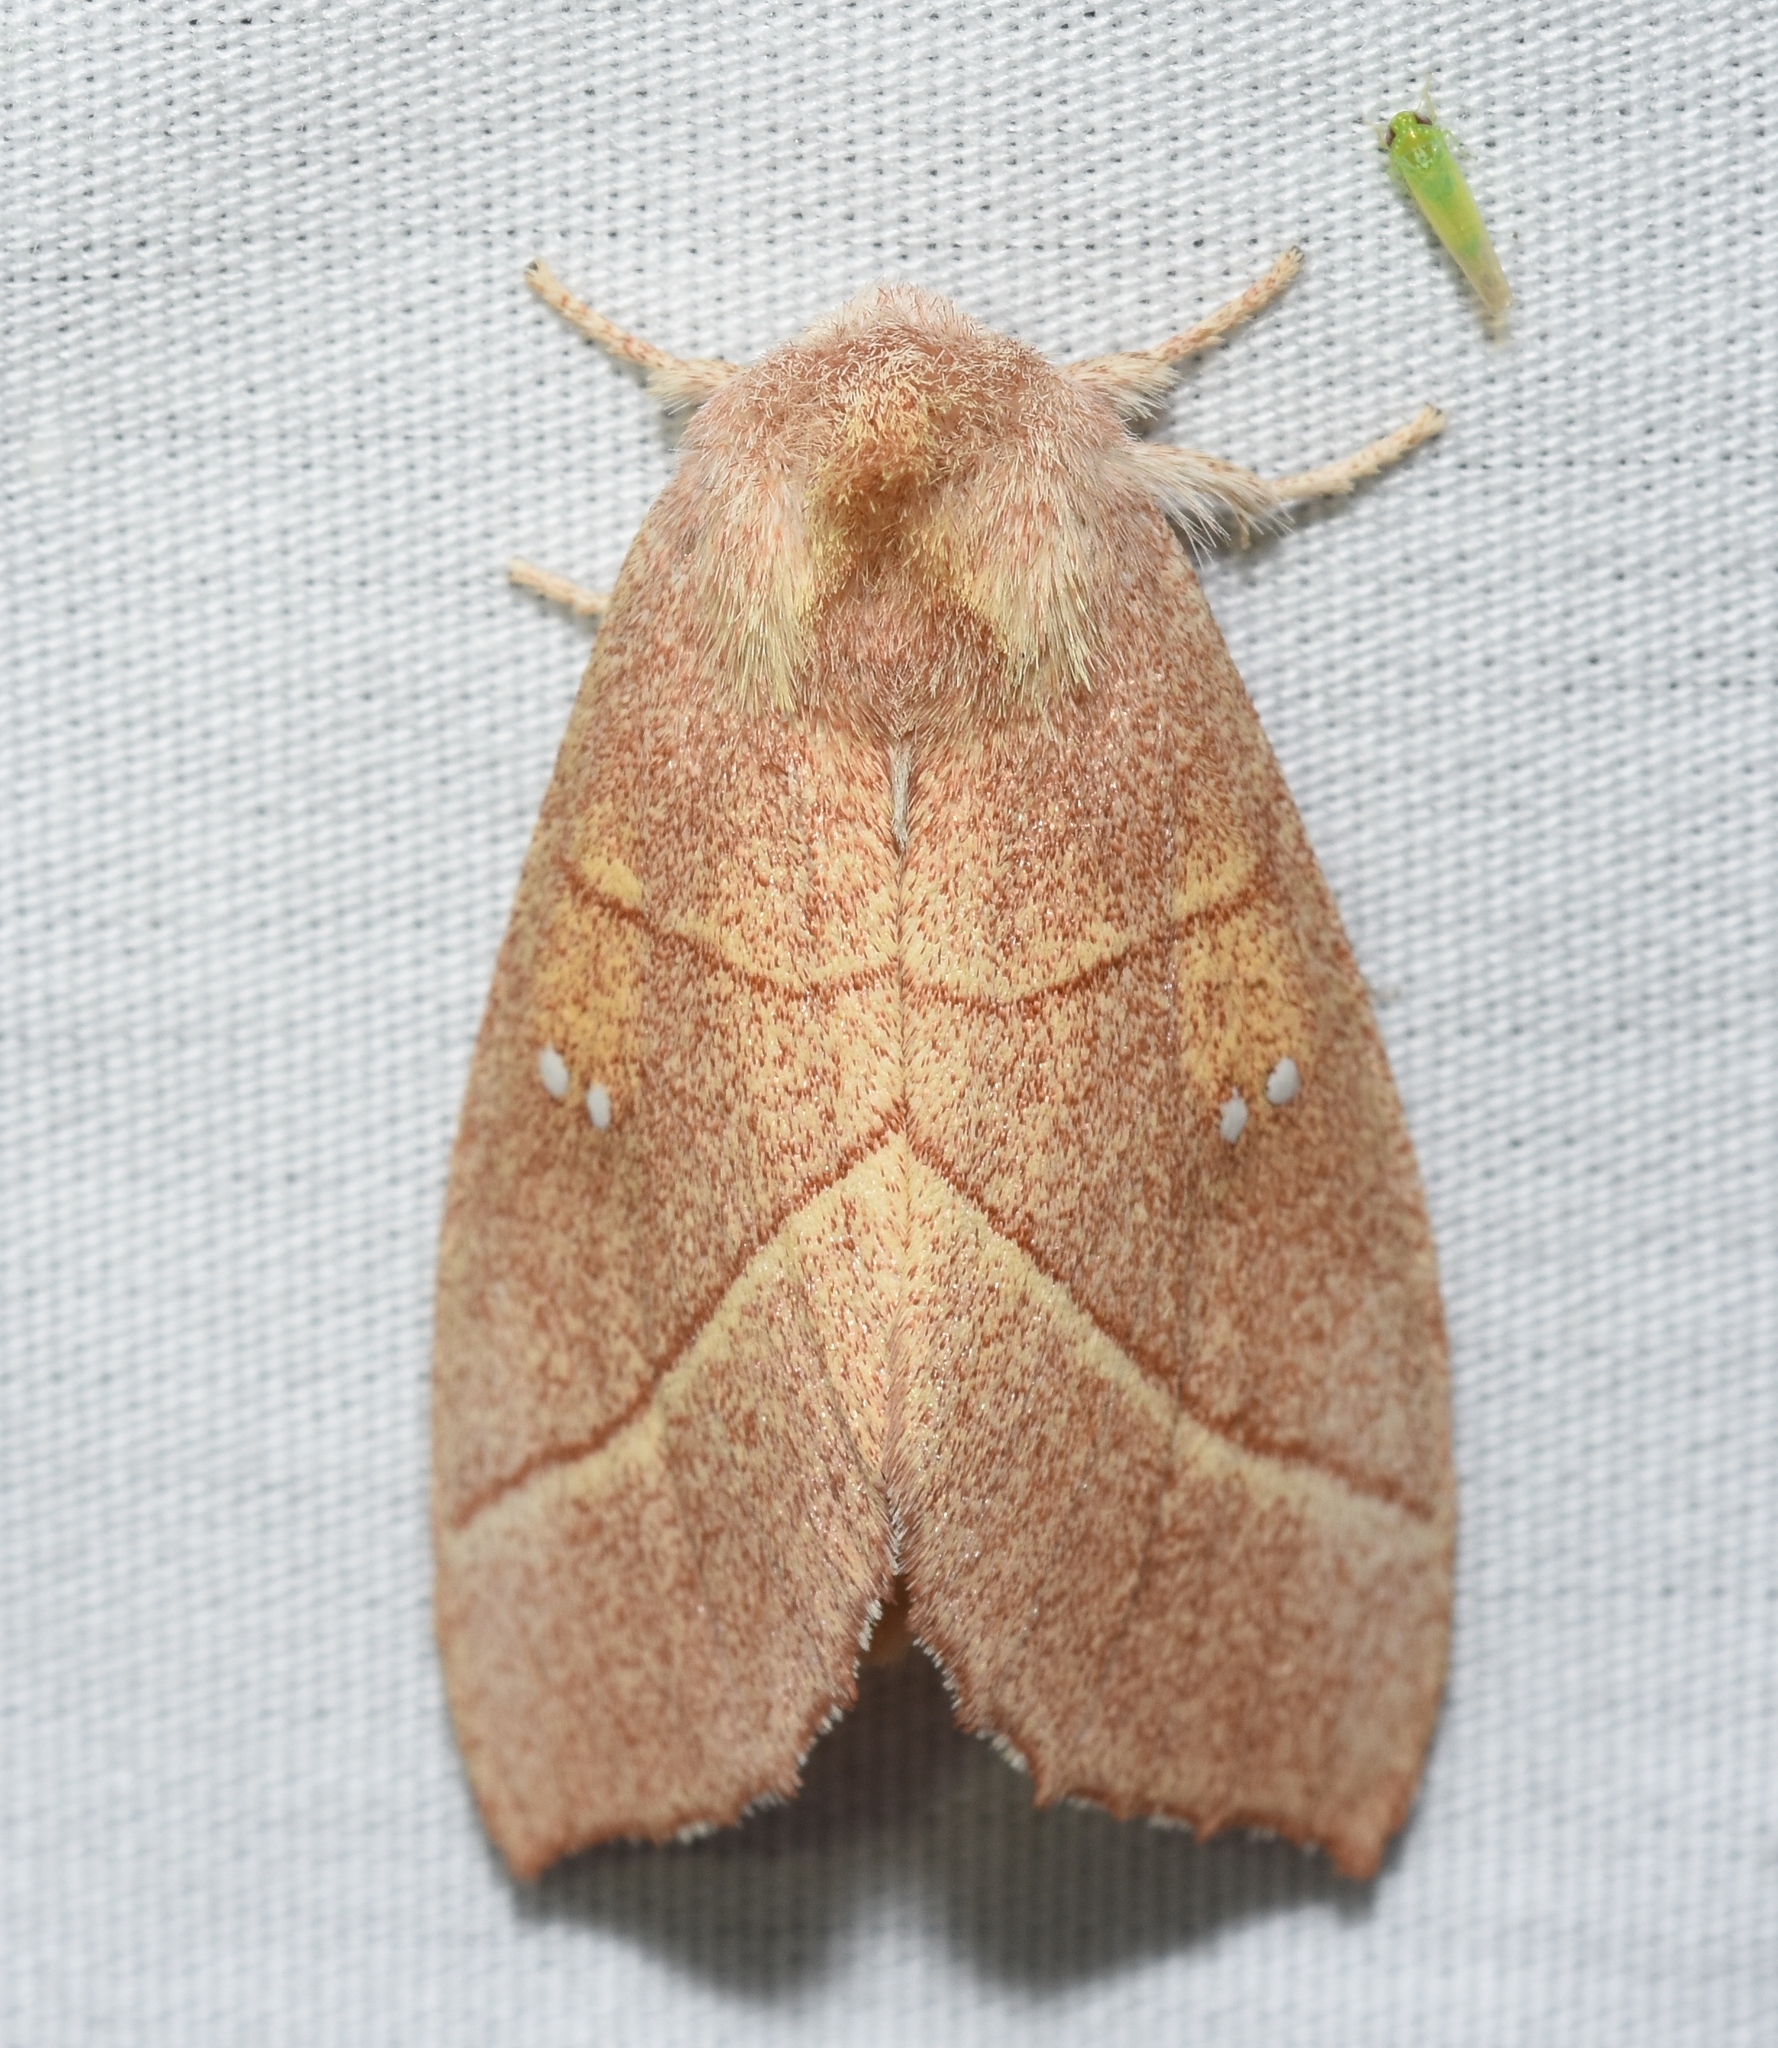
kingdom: Animalia
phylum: Arthropoda
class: Insecta
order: Lepidoptera
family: Notodontidae
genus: Nadata
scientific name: Nadata gibbosa
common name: White-dotted prominent
